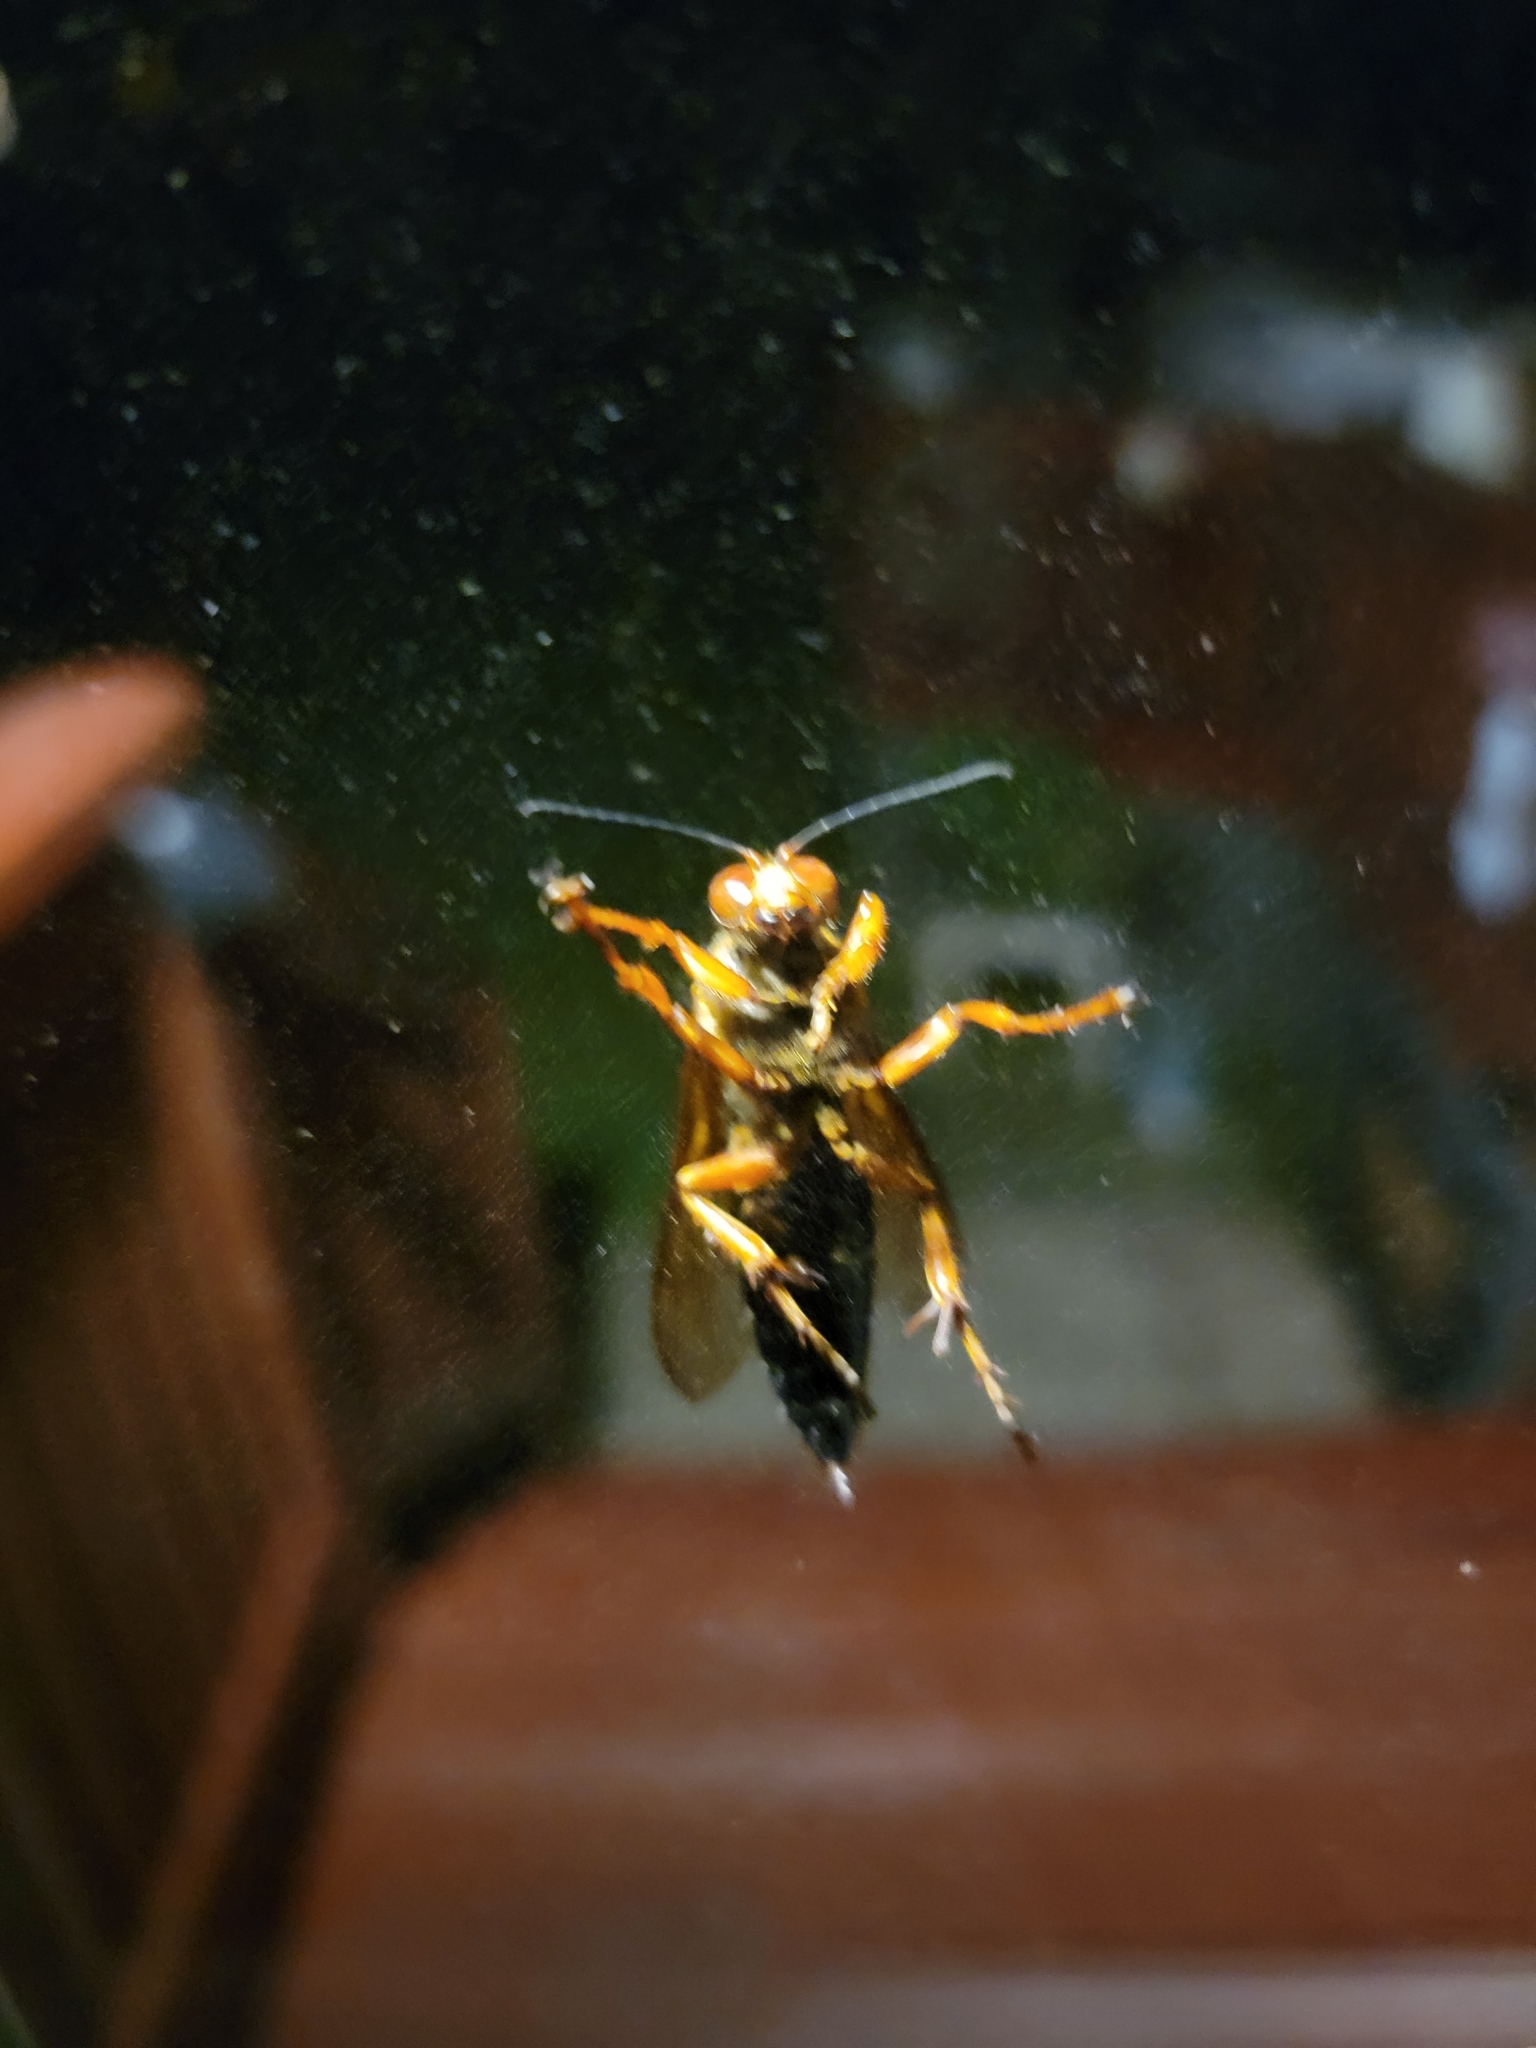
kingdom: Animalia
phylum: Arthropoda
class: Insecta
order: Hymenoptera
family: Crabronidae
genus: Sphecius
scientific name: Sphecius speciosus
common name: Cicada killer
